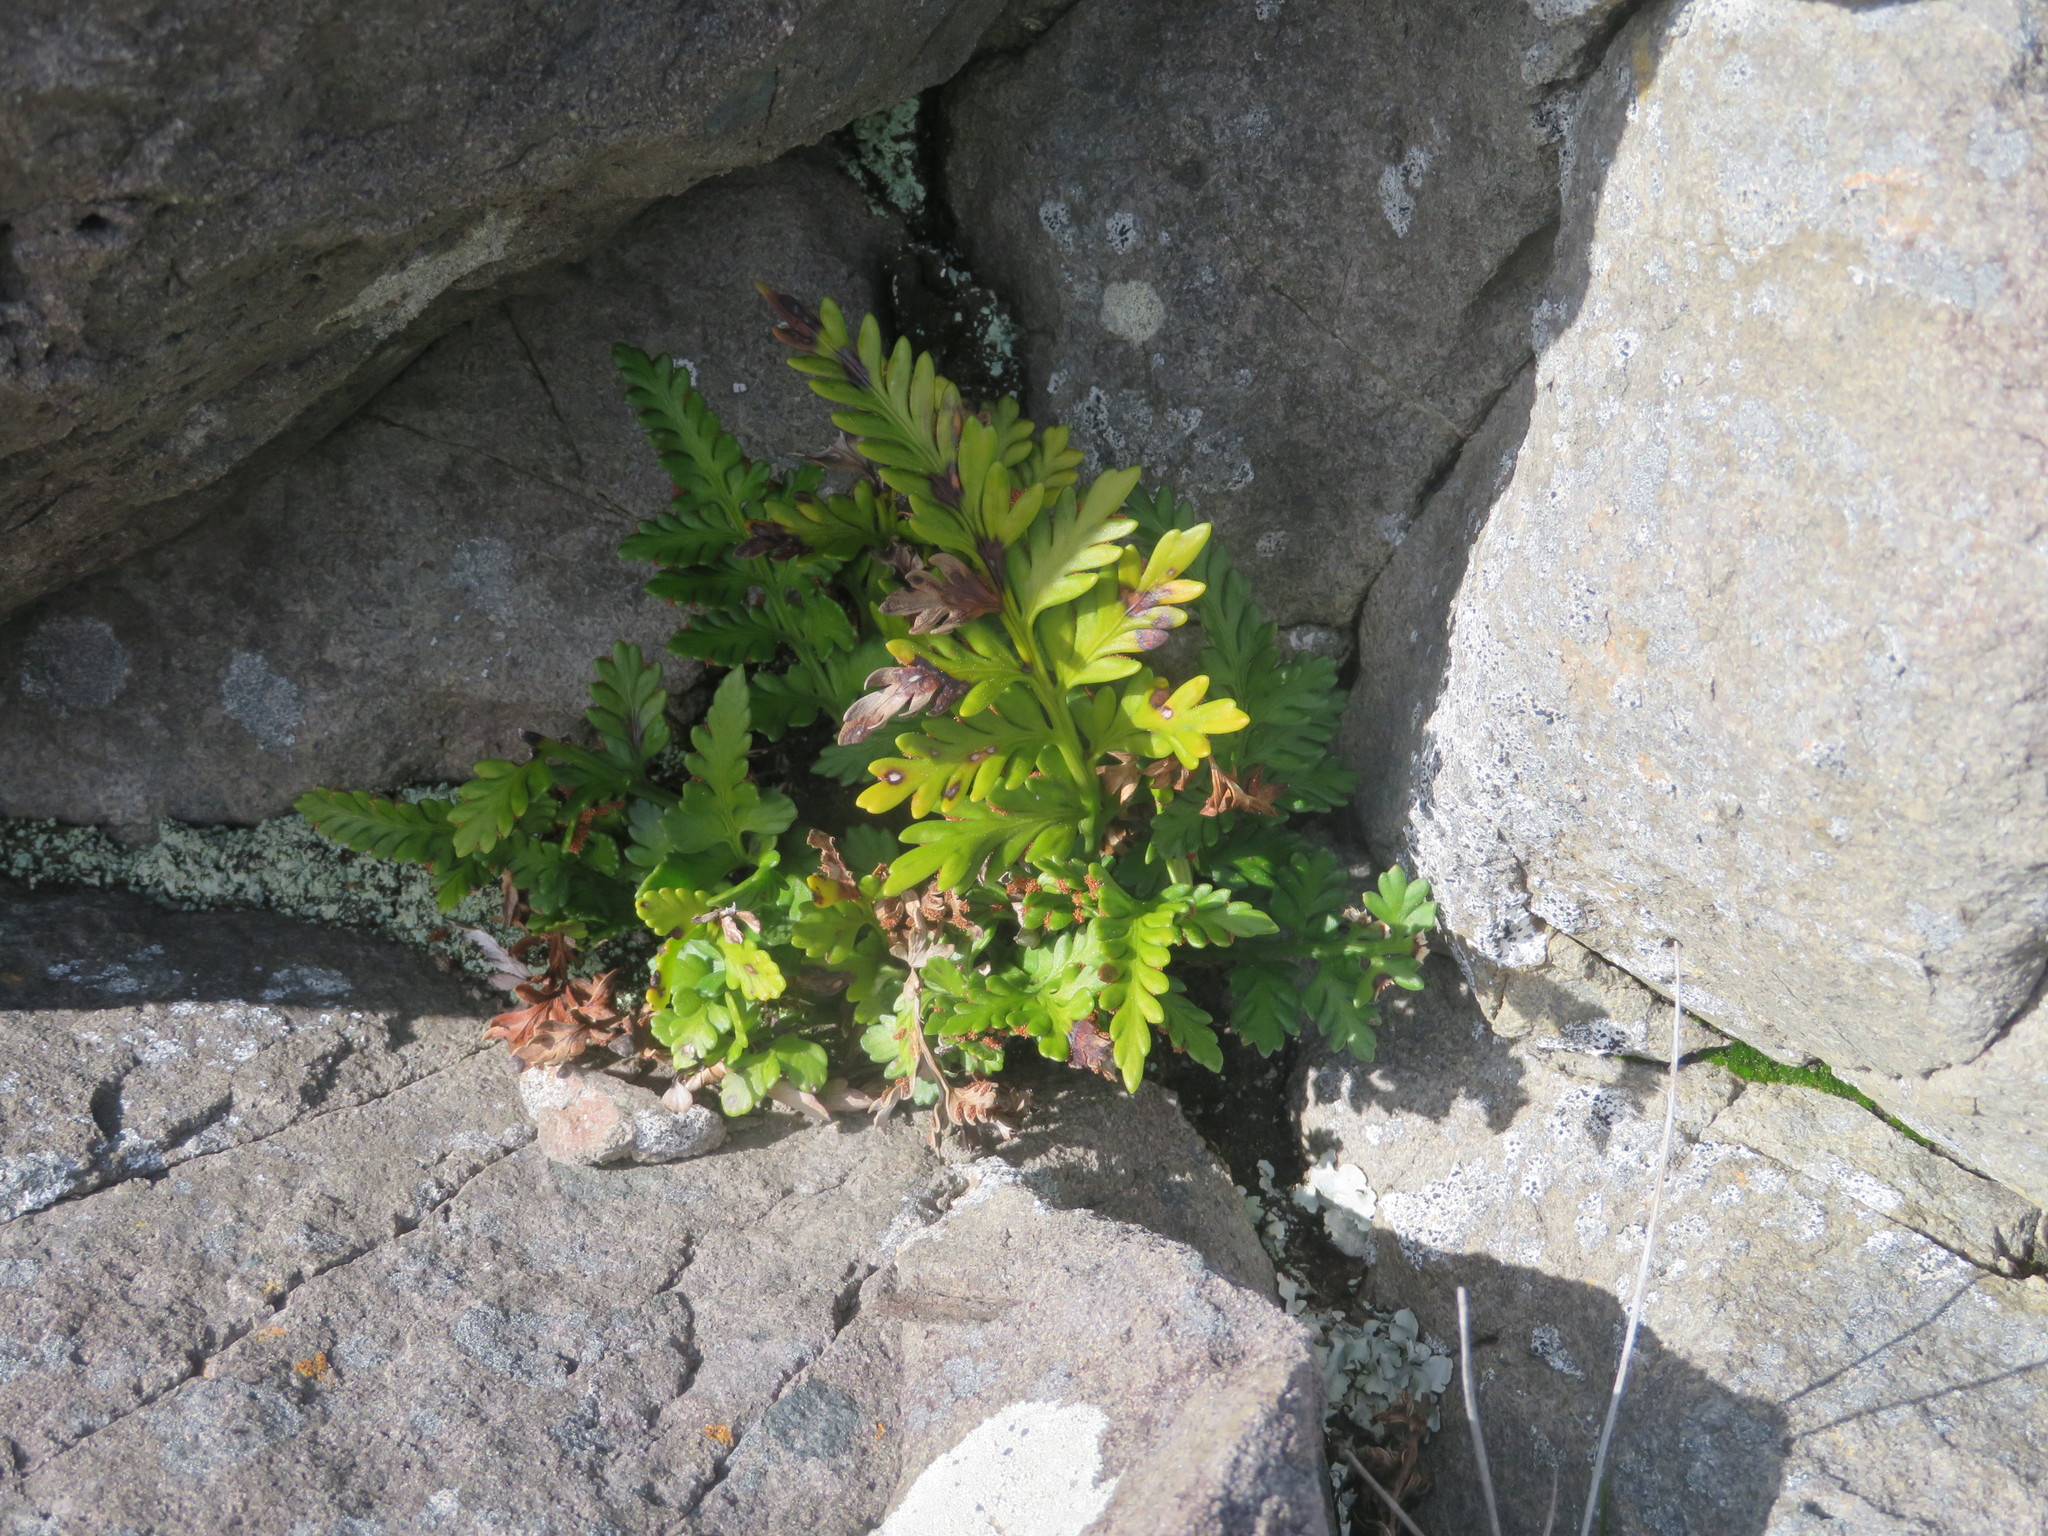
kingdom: Plantae
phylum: Tracheophyta
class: Polypodiopsida
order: Polypodiales
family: Aspleniaceae
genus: Asplenium
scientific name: Asplenium appendiculatum
